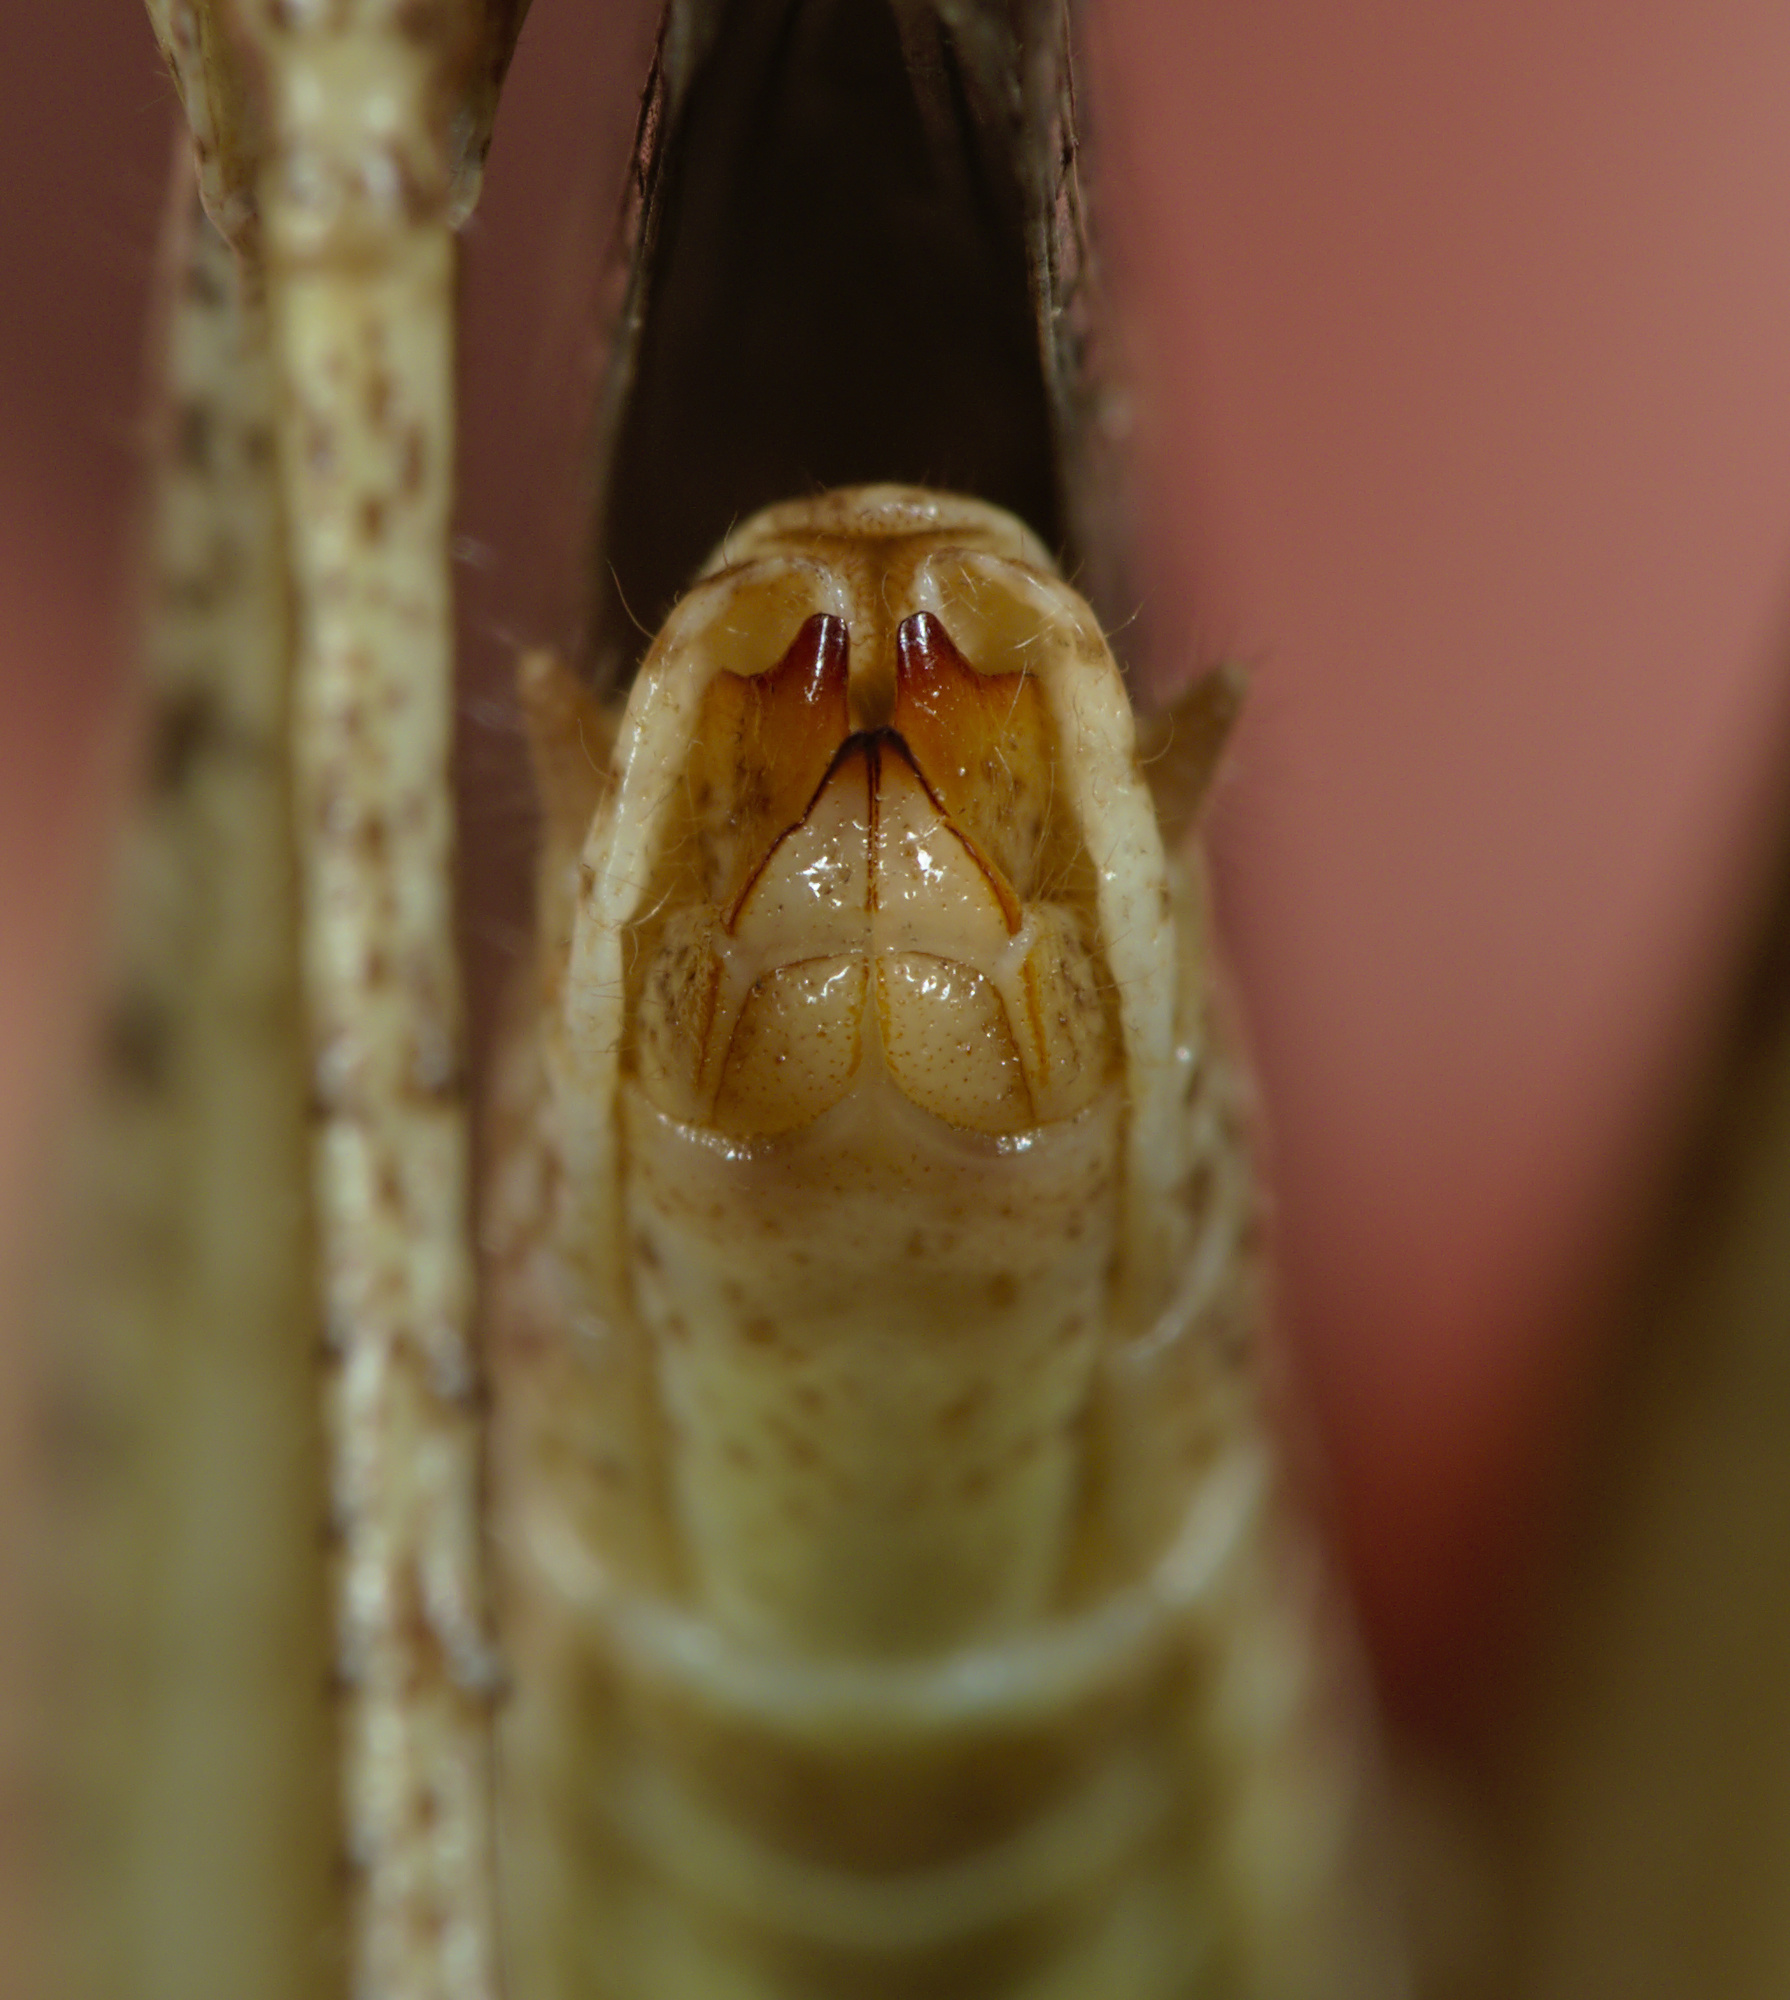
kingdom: Animalia
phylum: Arthropoda
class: Insecta
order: Orthoptera
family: Acrididae
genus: Chorthippus
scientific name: Chorthippus brunneus
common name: Field grasshopper
